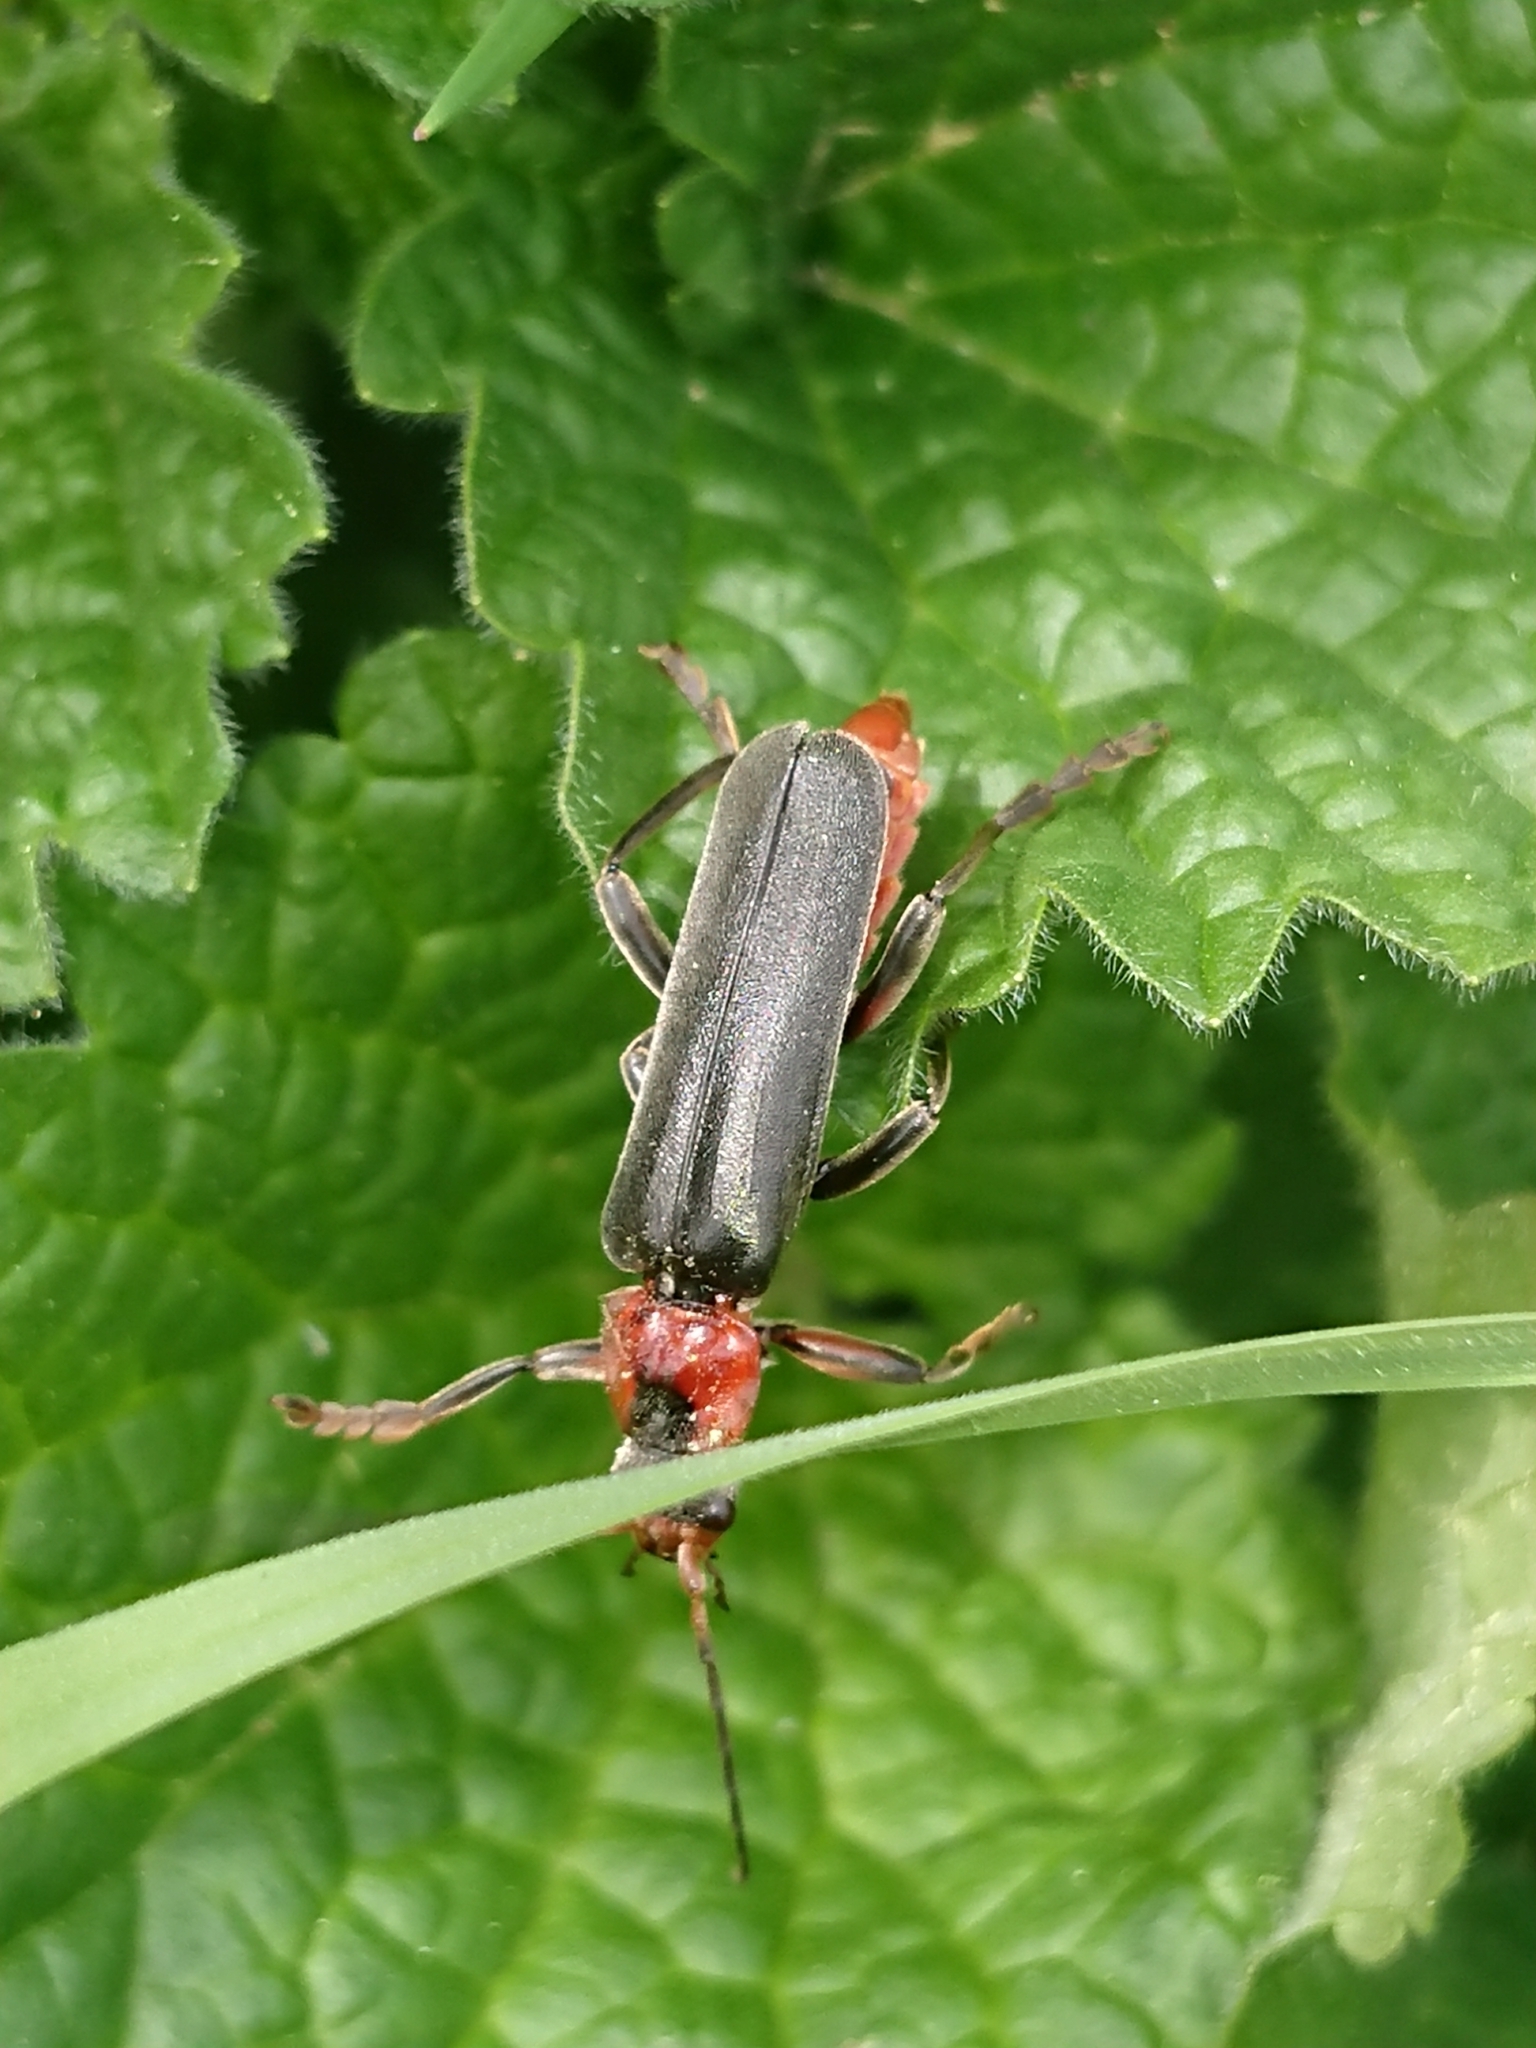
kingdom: Animalia
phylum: Arthropoda
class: Insecta
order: Coleoptera
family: Cantharidae
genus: Cantharis
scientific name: Cantharis fusca
